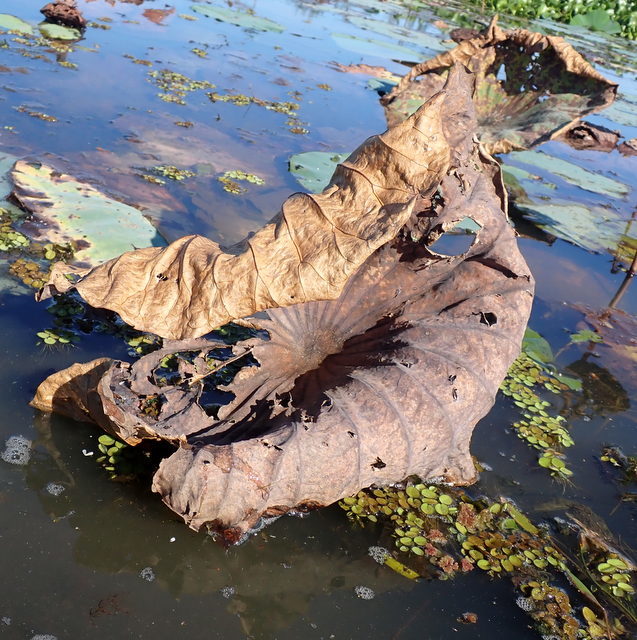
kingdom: Plantae
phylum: Tracheophyta
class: Magnoliopsida
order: Proteales
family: Nelumbonaceae
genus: Nelumbo
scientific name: Nelumbo lutea
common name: American lotus
